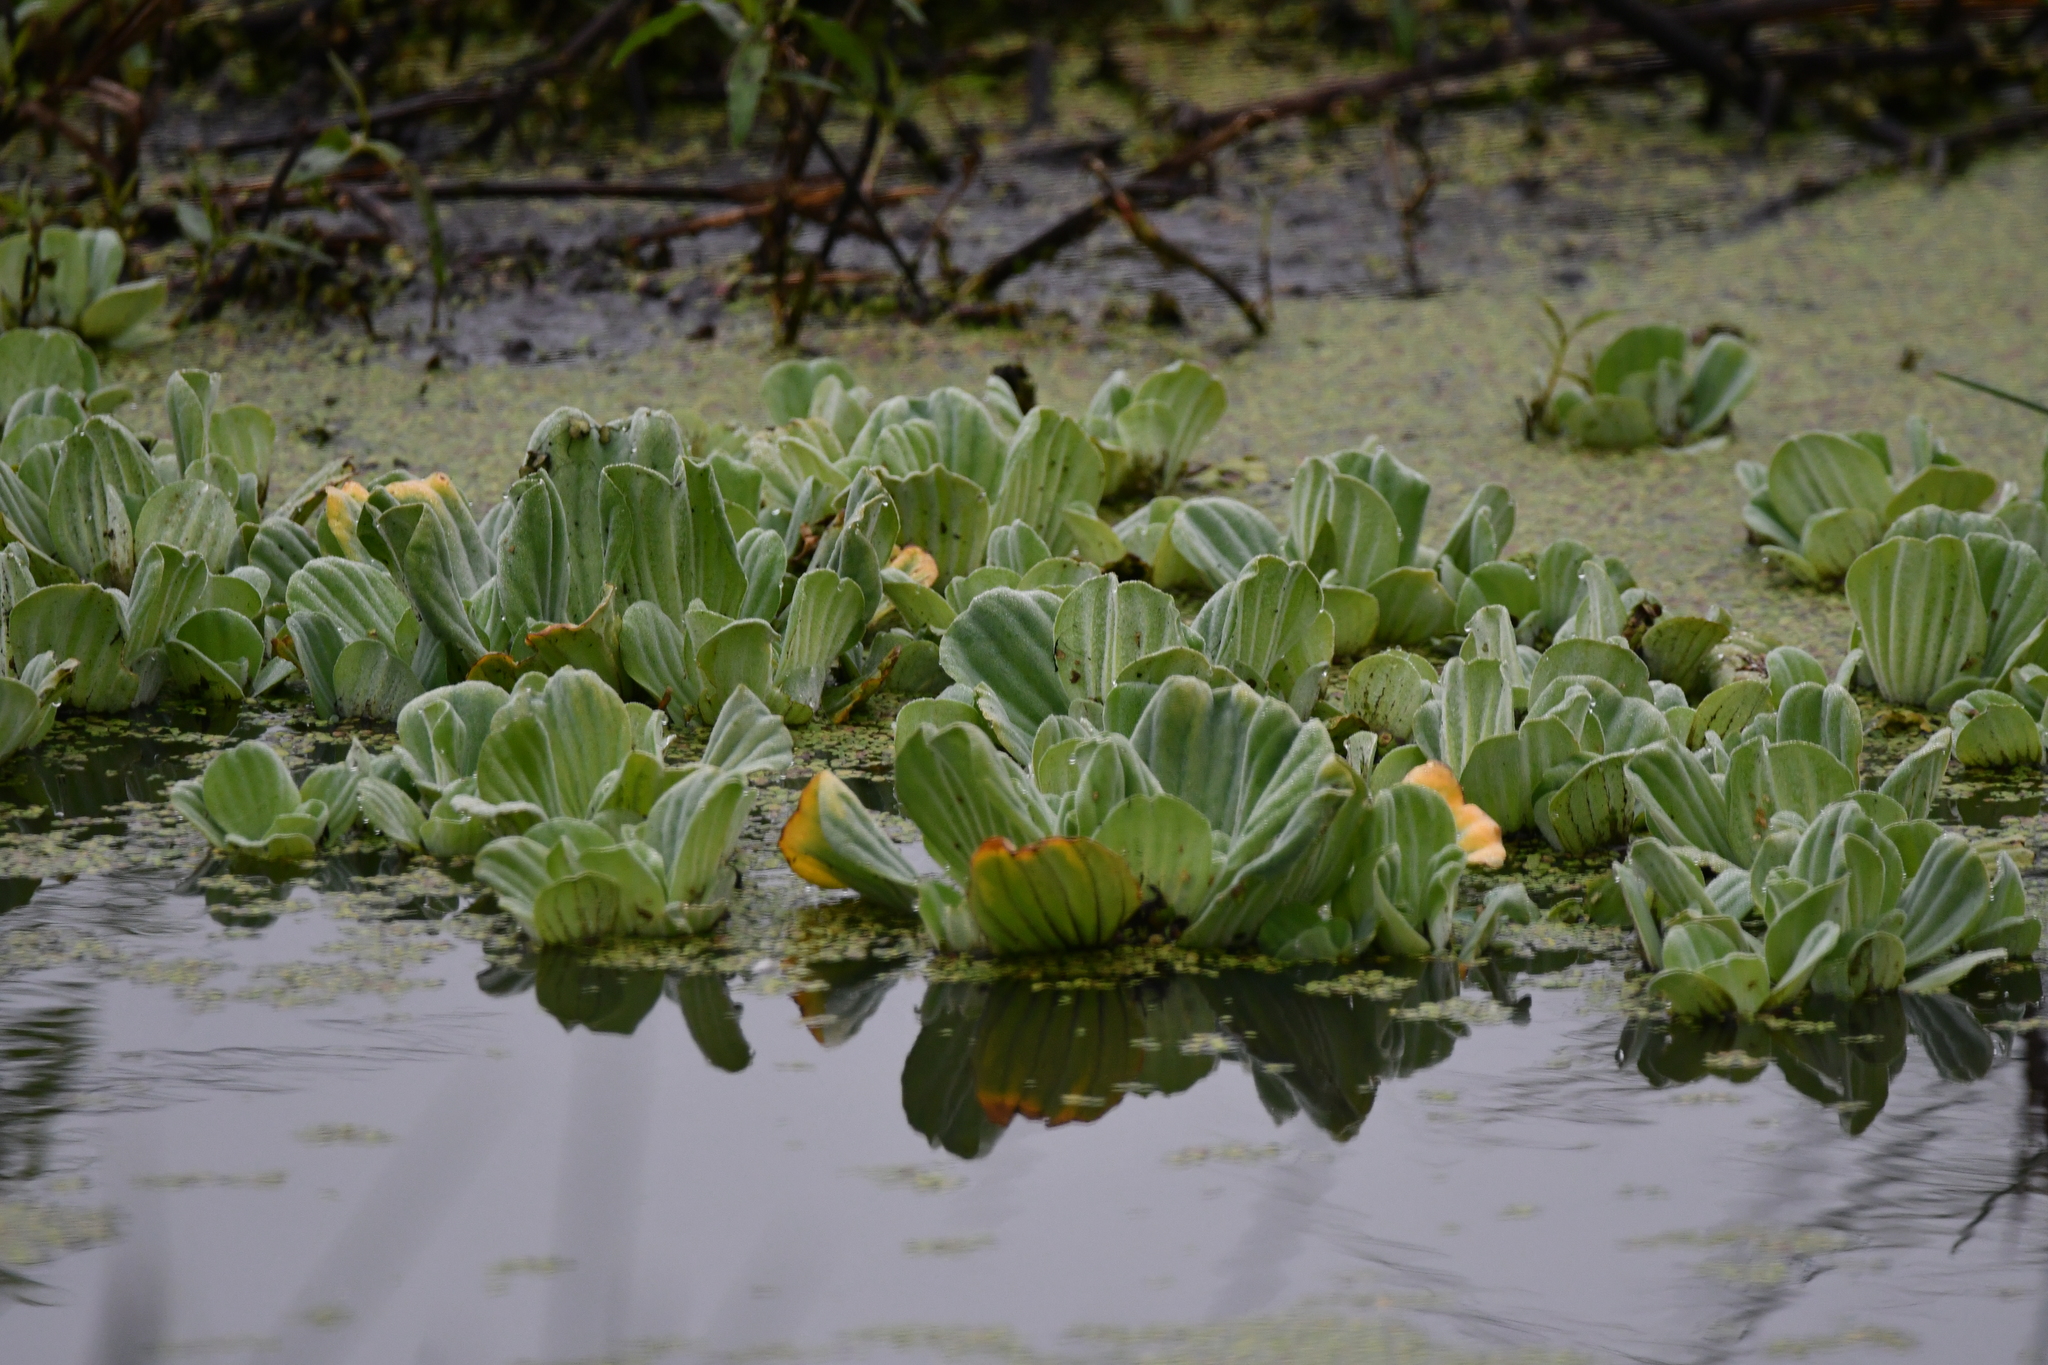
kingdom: Plantae
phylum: Tracheophyta
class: Liliopsida
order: Alismatales
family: Araceae
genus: Pistia
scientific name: Pistia stratiotes
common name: Water lettuce
